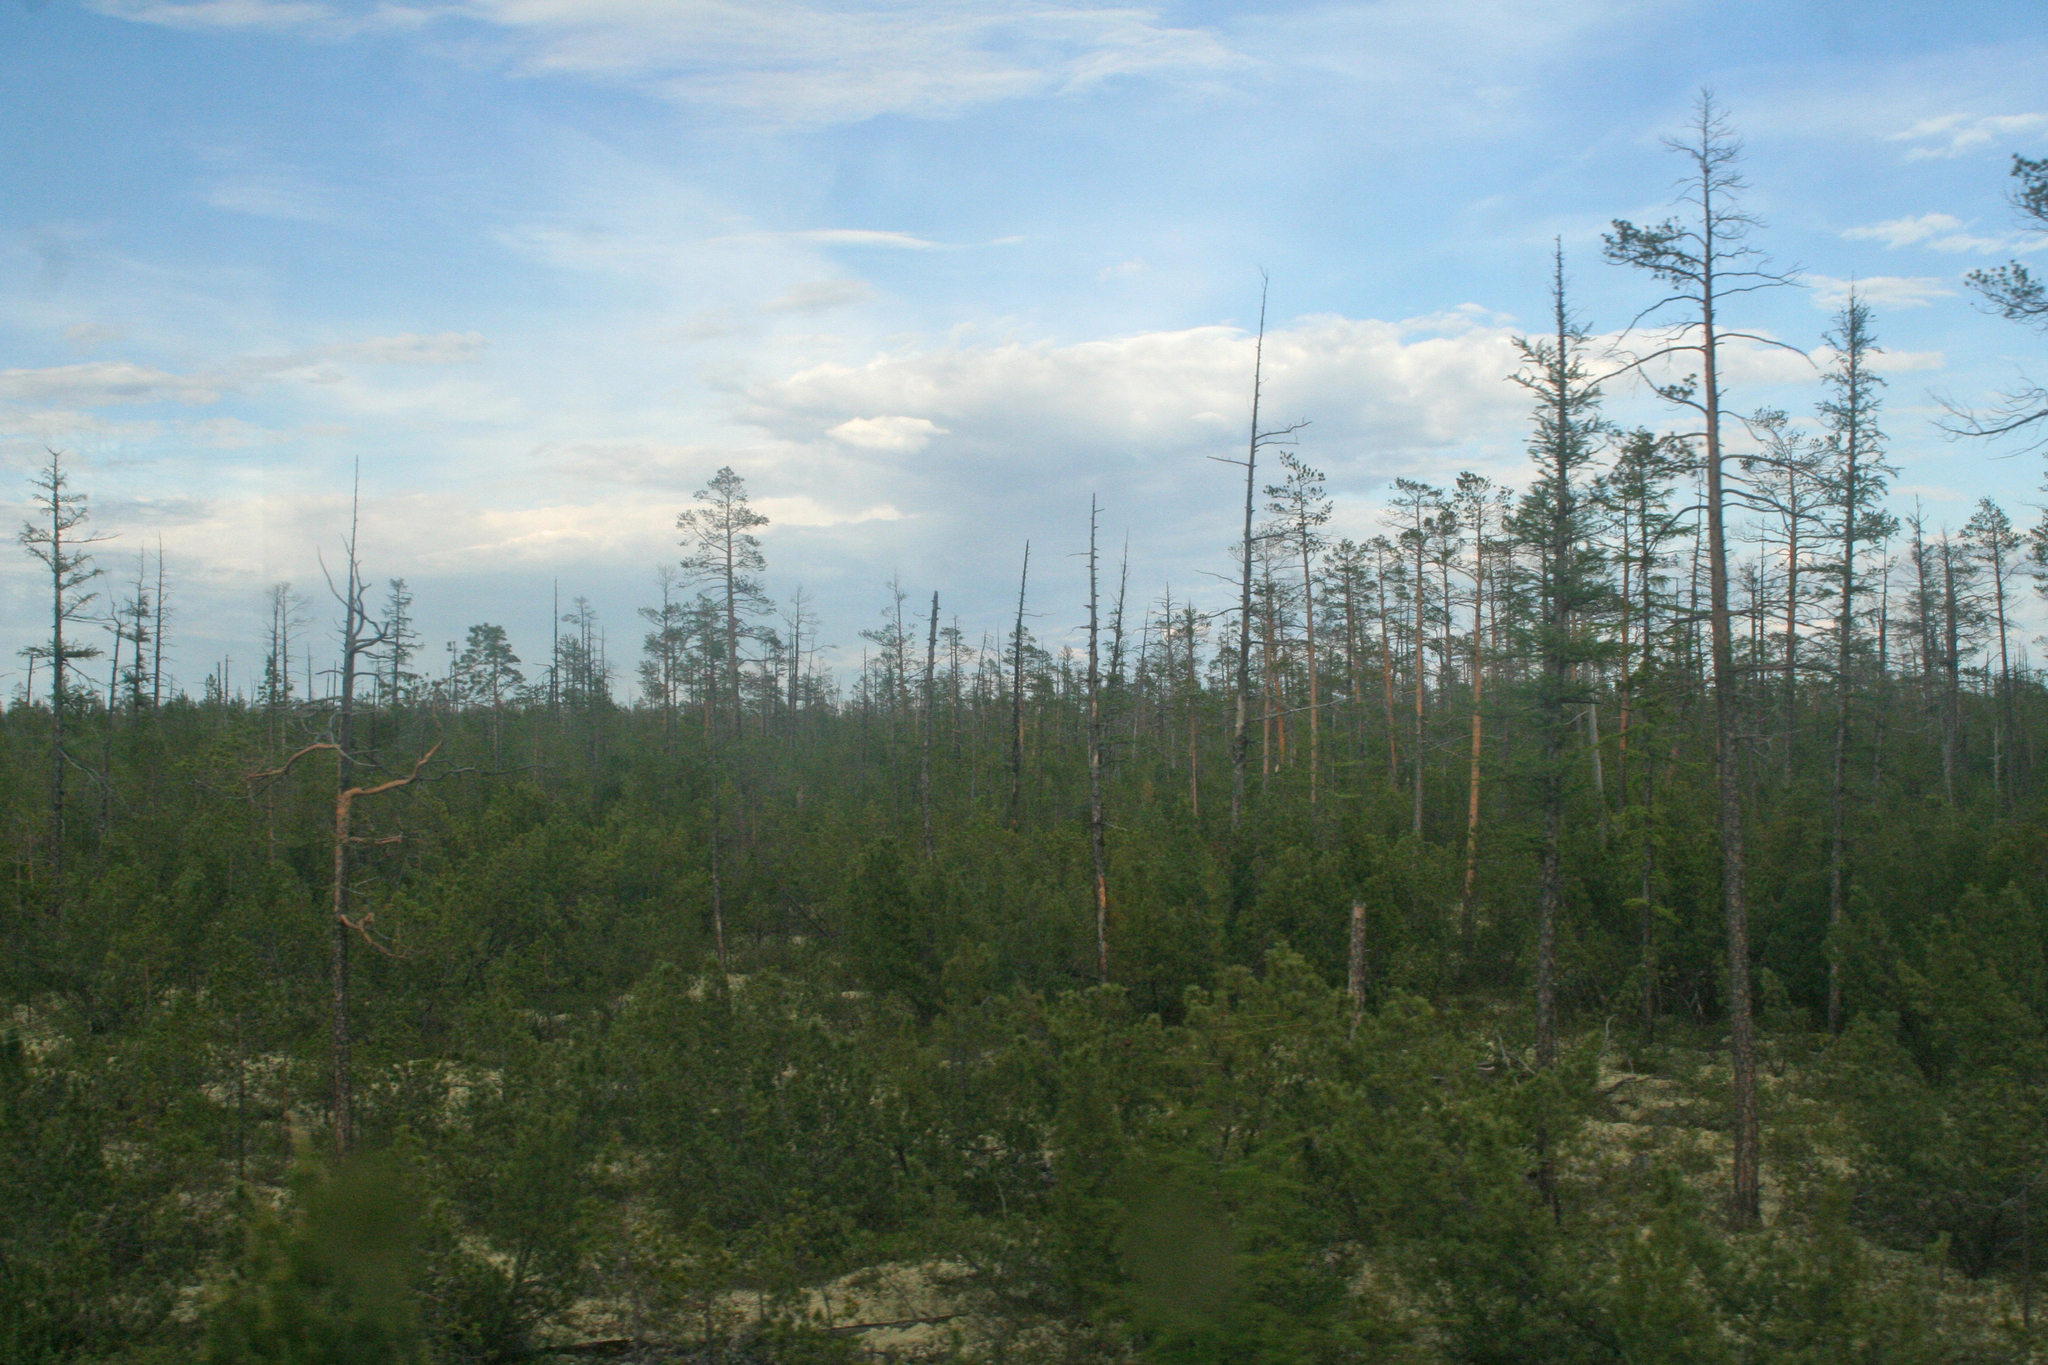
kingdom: Plantae
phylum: Tracheophyta
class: Pinopsida
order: Pinales
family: Pinaceae
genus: Pinus
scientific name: Pinus sylvestris
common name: Scots pine
